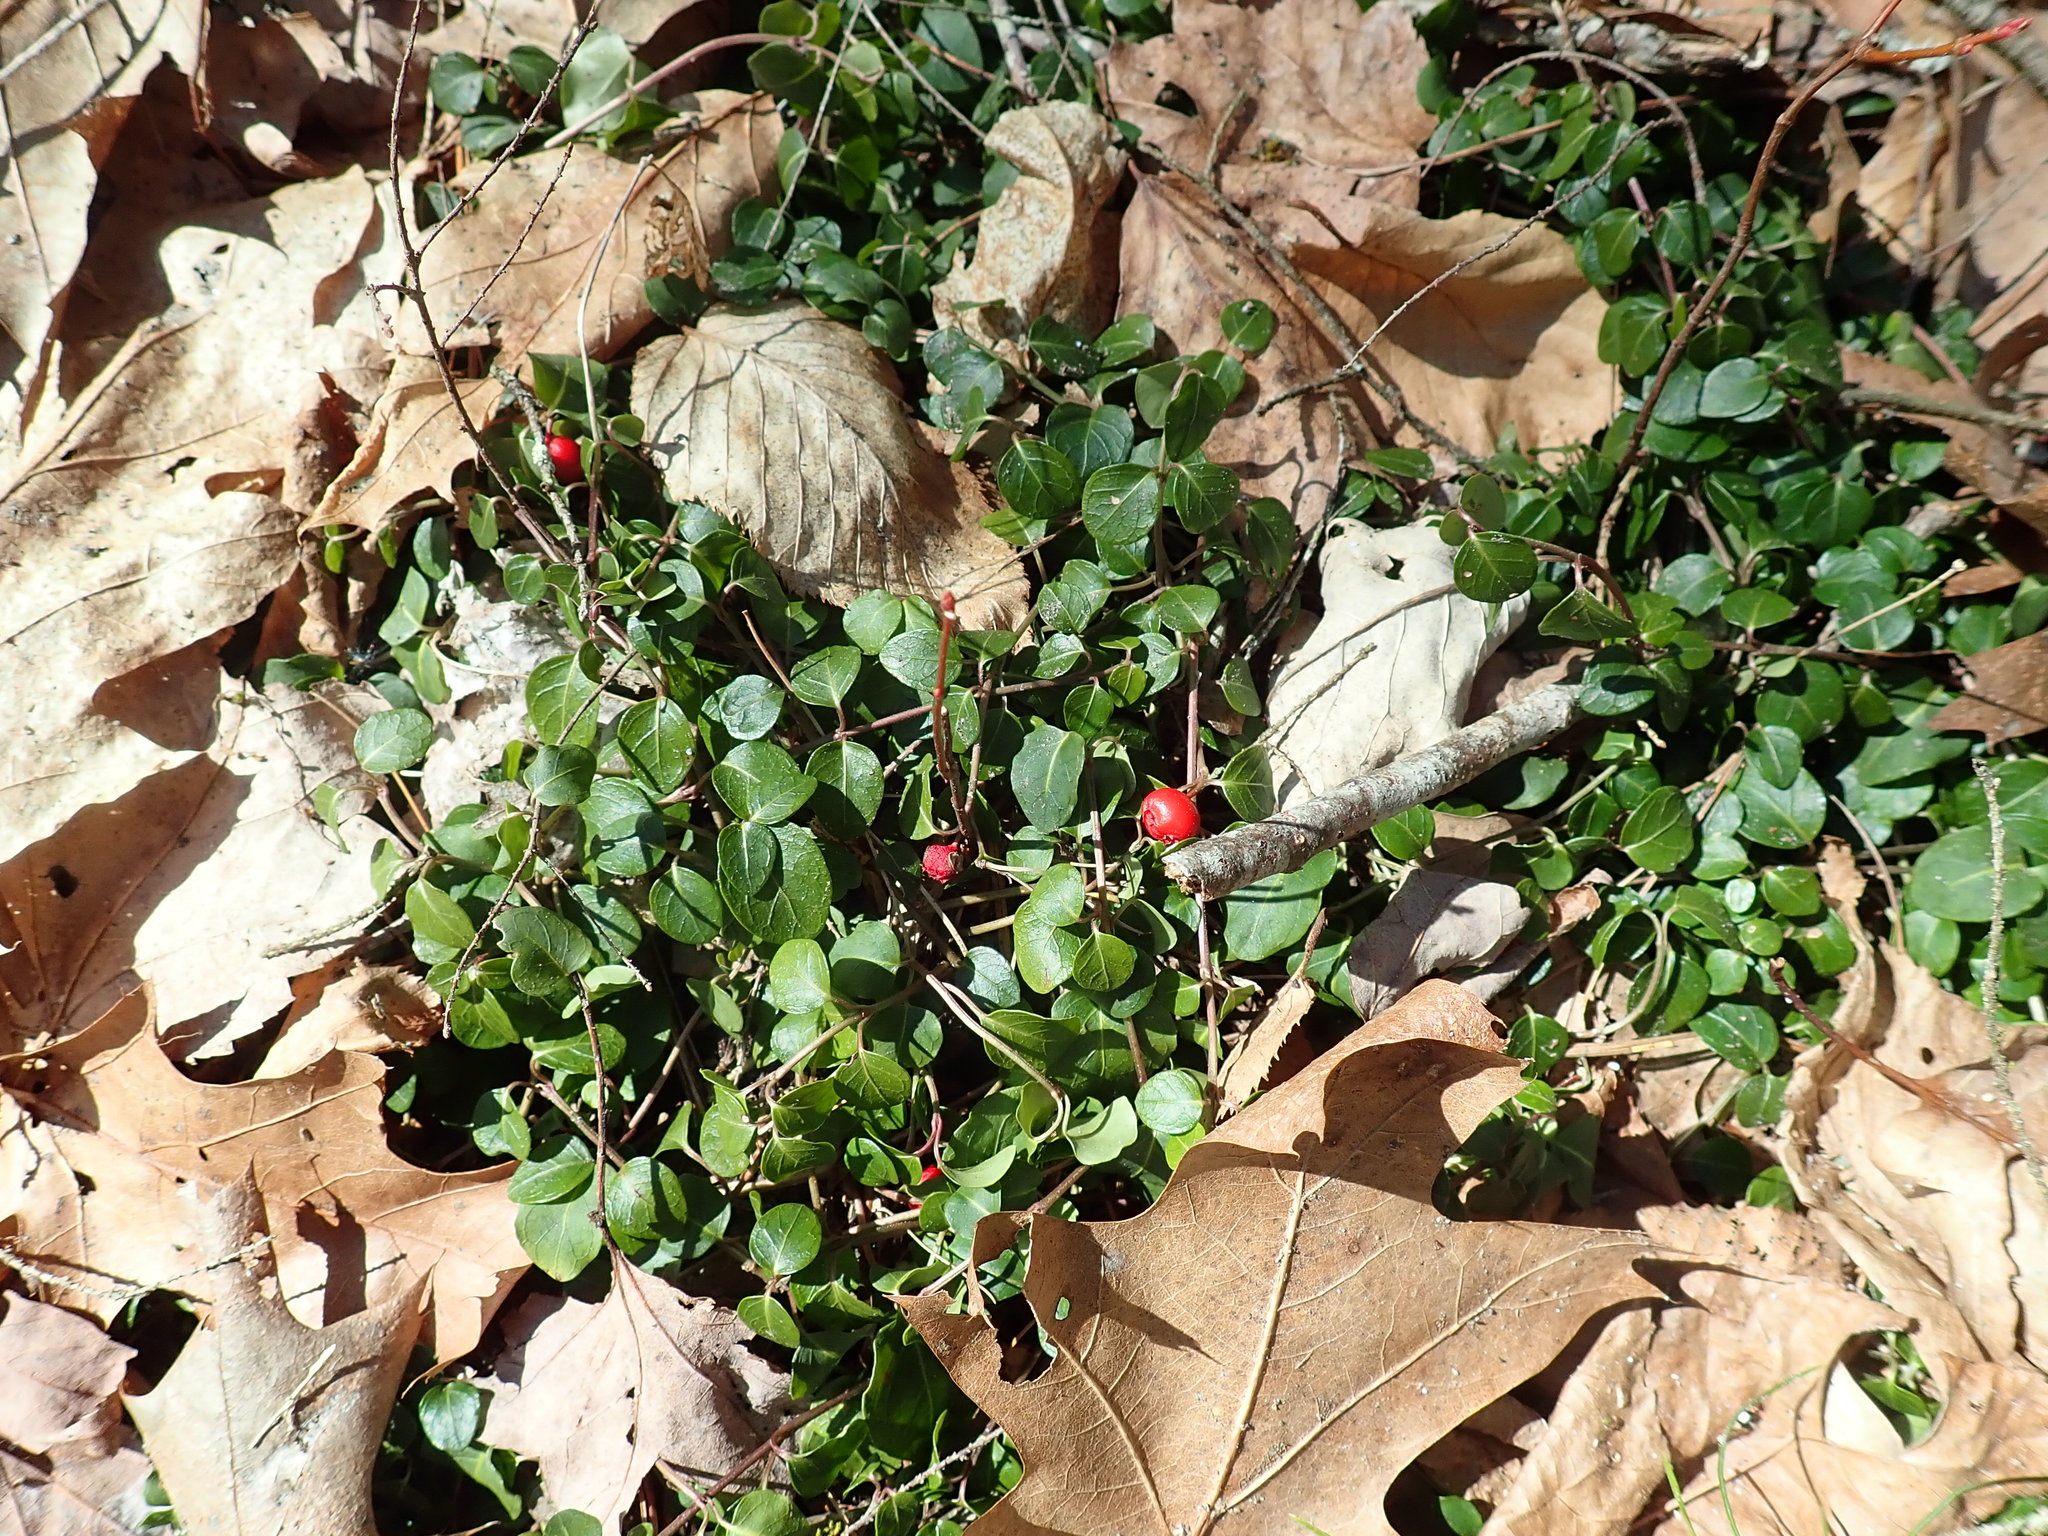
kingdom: Plantae
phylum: Tracheophyta
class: Magnoliopsida
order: Gentianales
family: Rubiaceae
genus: Mitchella
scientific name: Mitchella repens
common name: Partridge-berry
